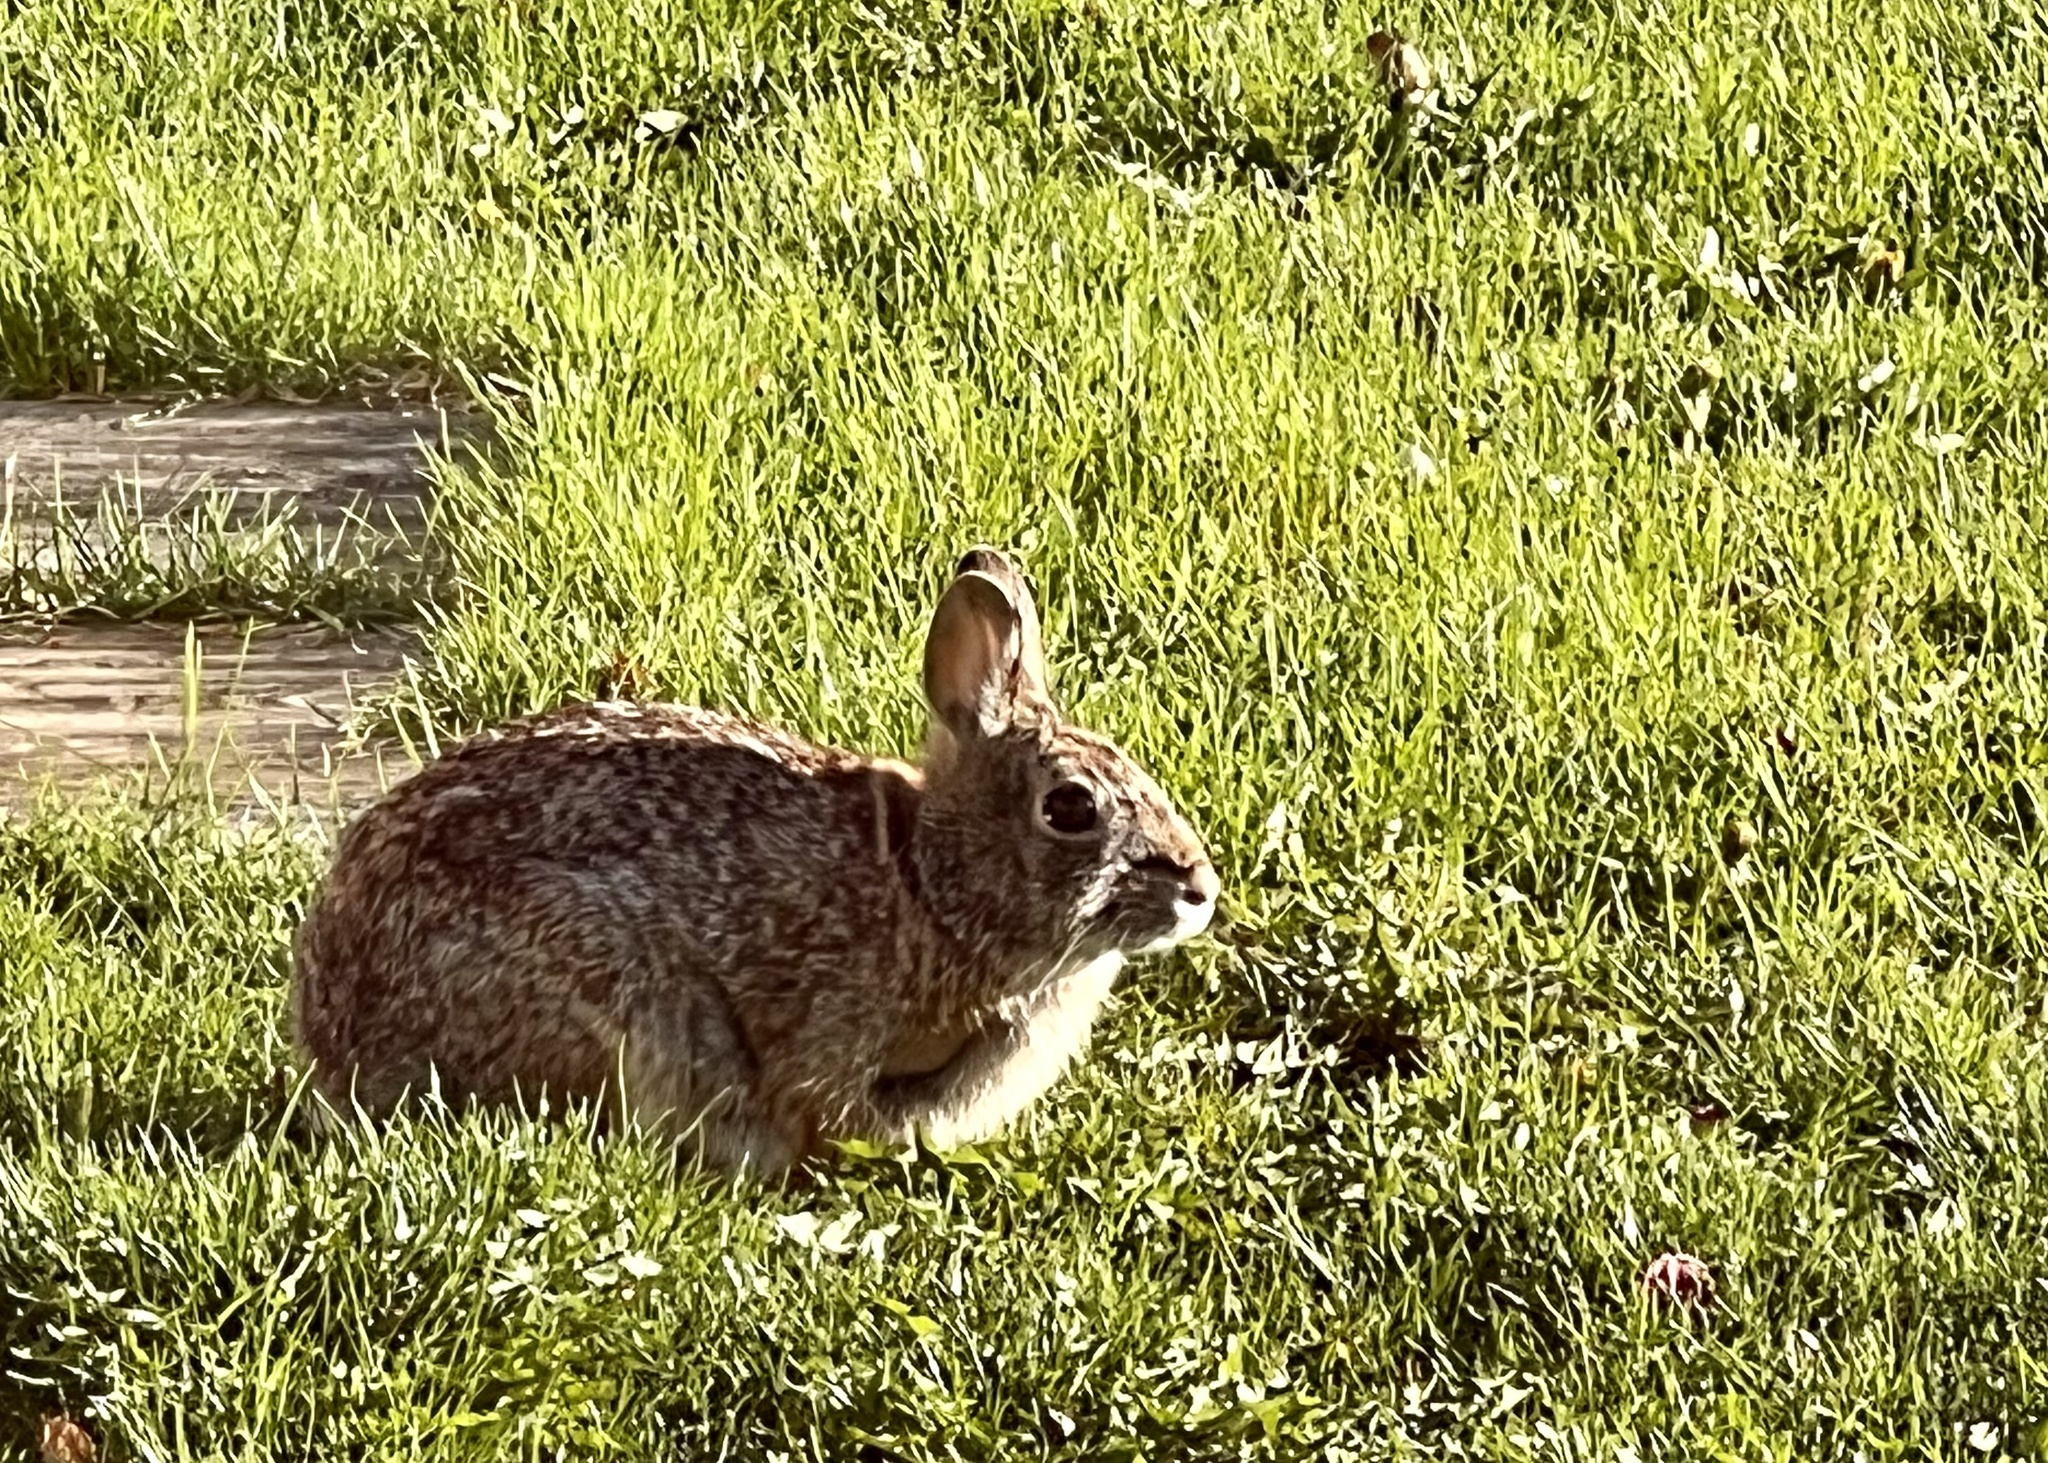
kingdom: Animalia
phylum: Chordata
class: Mammalia
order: Lagomorpha
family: Leporidae
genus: Sylvilagus
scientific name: Sylvilagus floridanus
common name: Eastern cottontail
